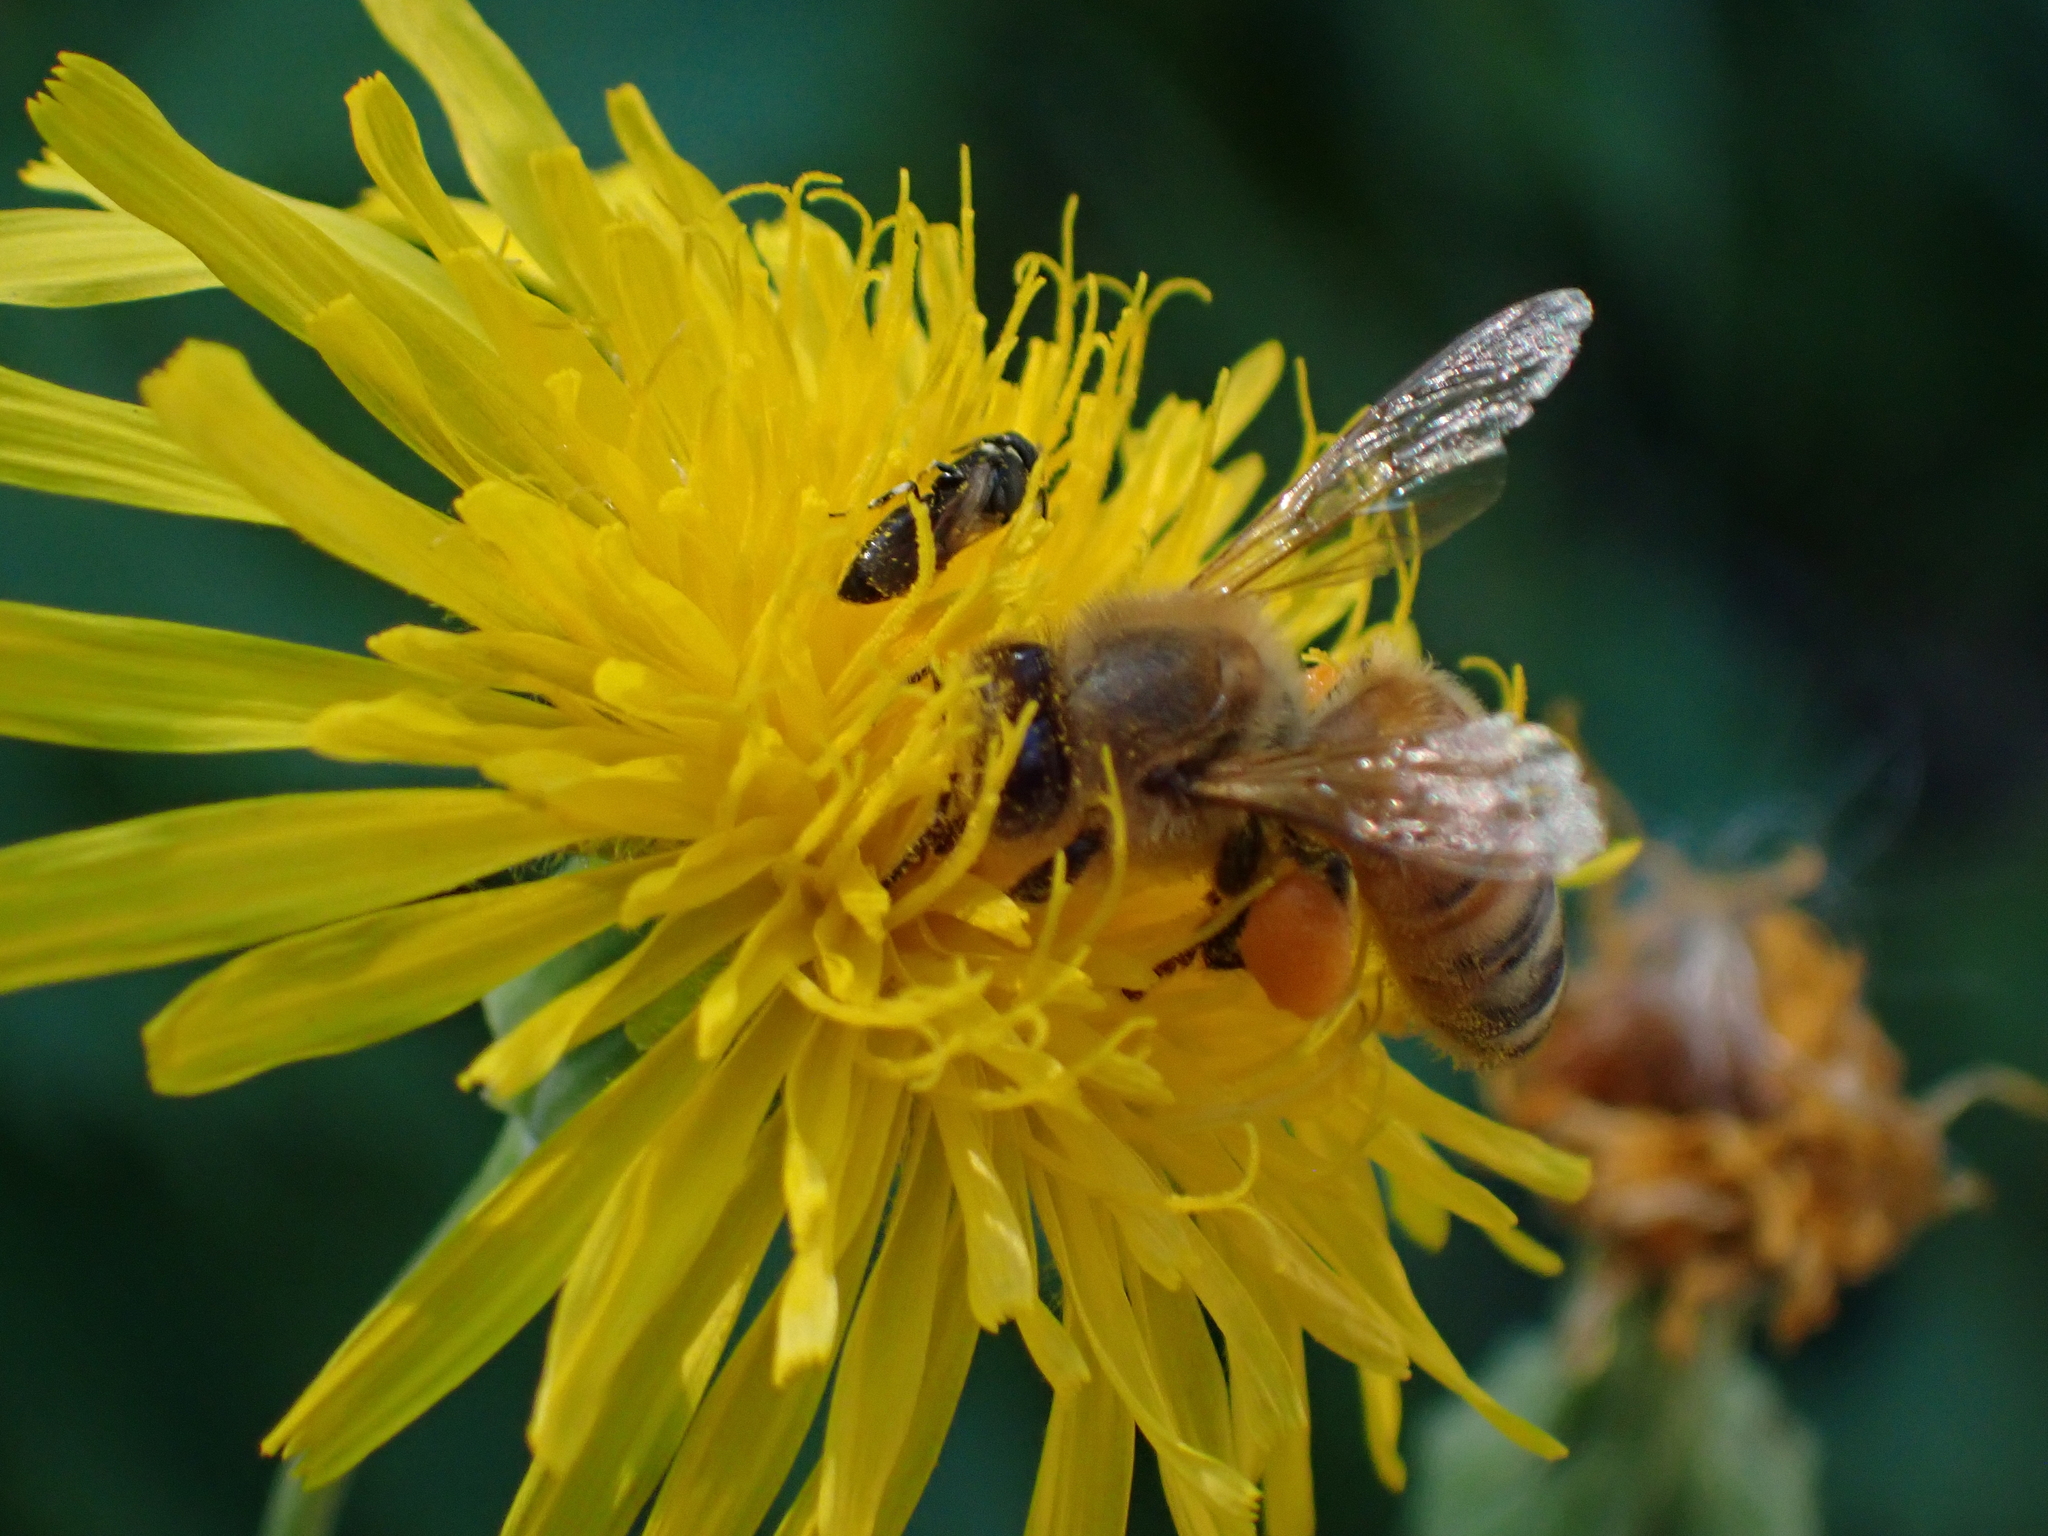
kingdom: Animalia
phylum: Arthropoda
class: Insecta
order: Hymenoptera
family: Apidae
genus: Apis
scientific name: Apis mellifera
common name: Honey bee
